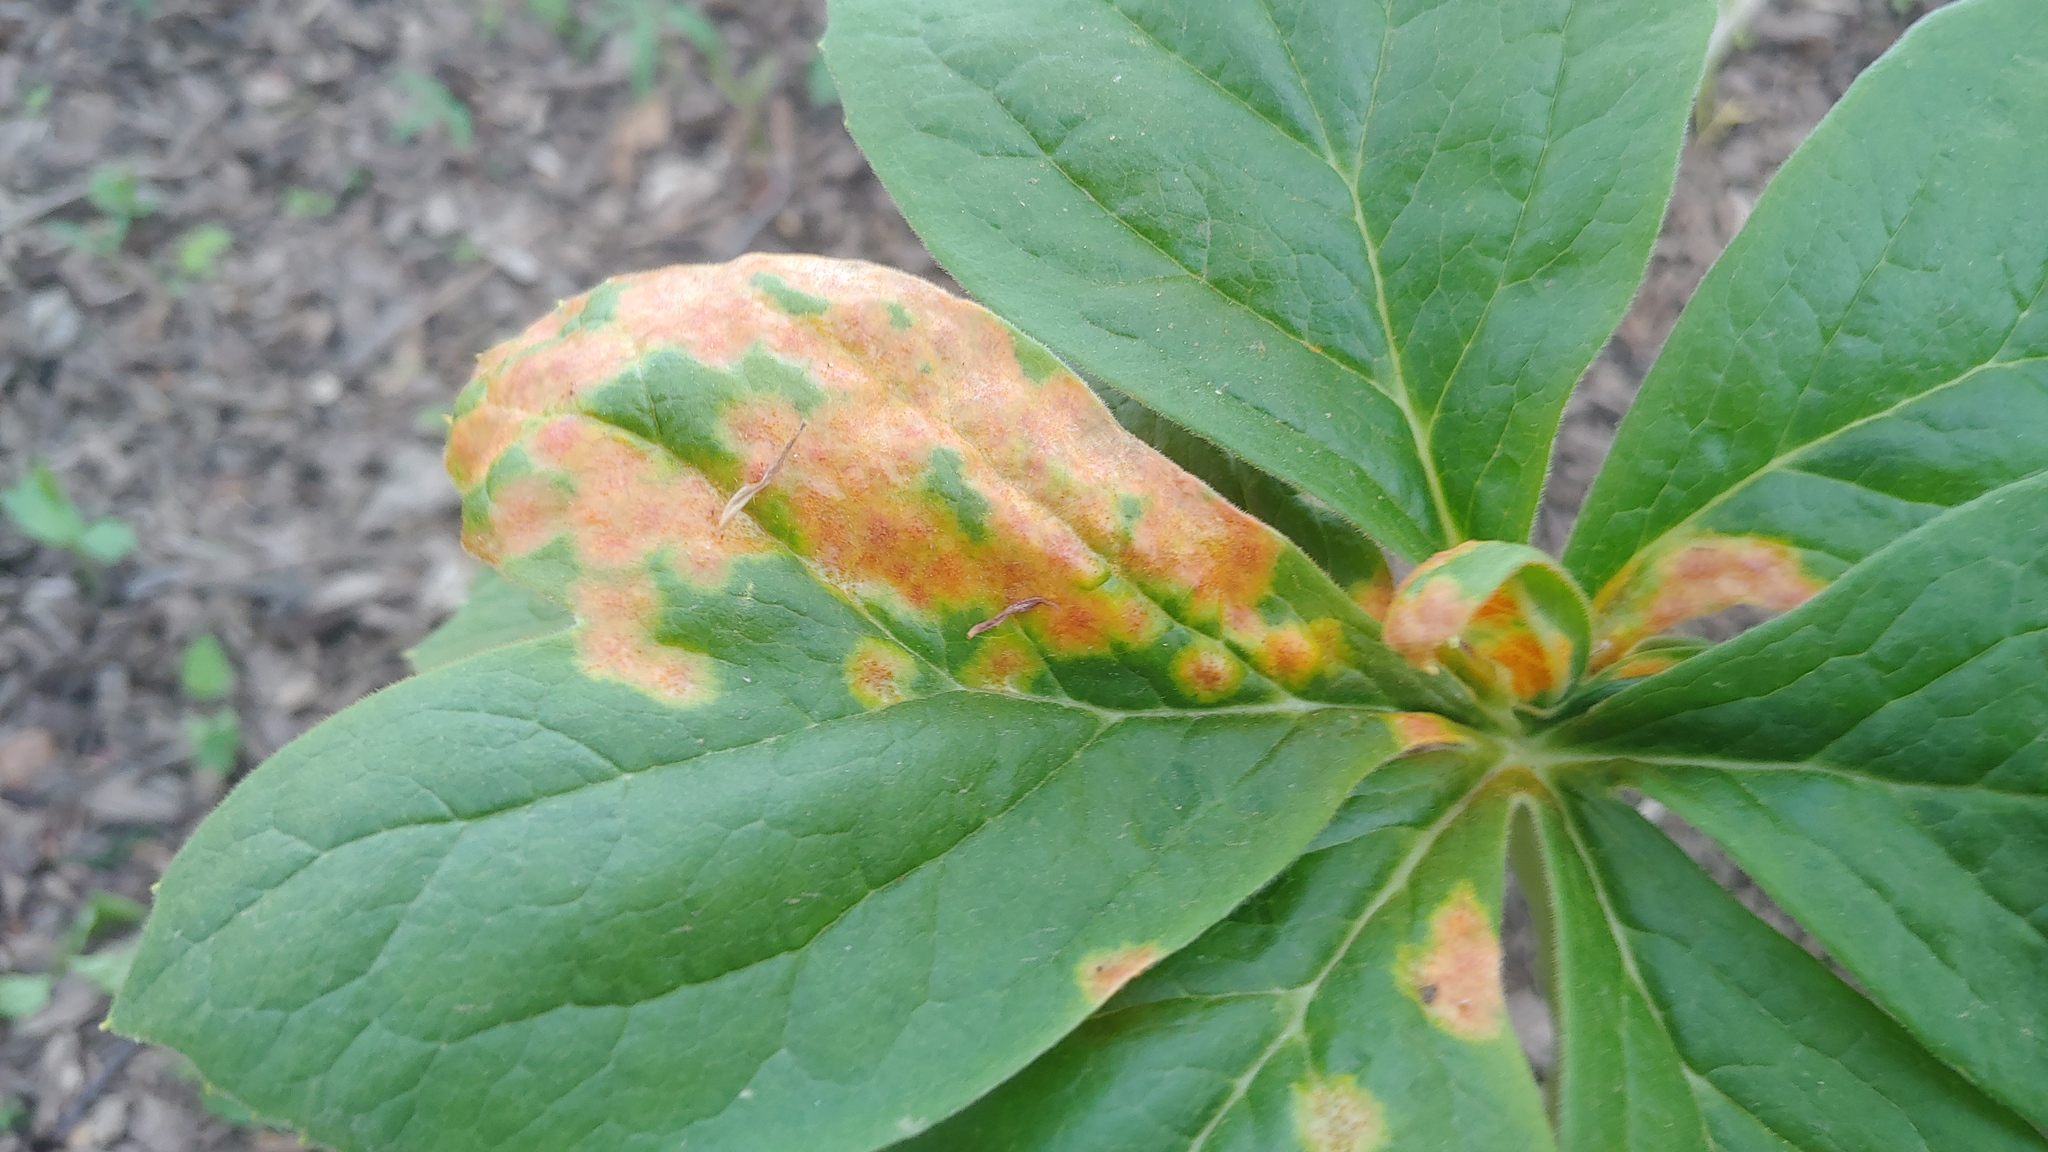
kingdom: Fungi
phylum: Basidiomycota
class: Pucciniomycetes
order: Pucciniales
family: Pucciniaceae
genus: Puccinia
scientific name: Puccinia podophylli
